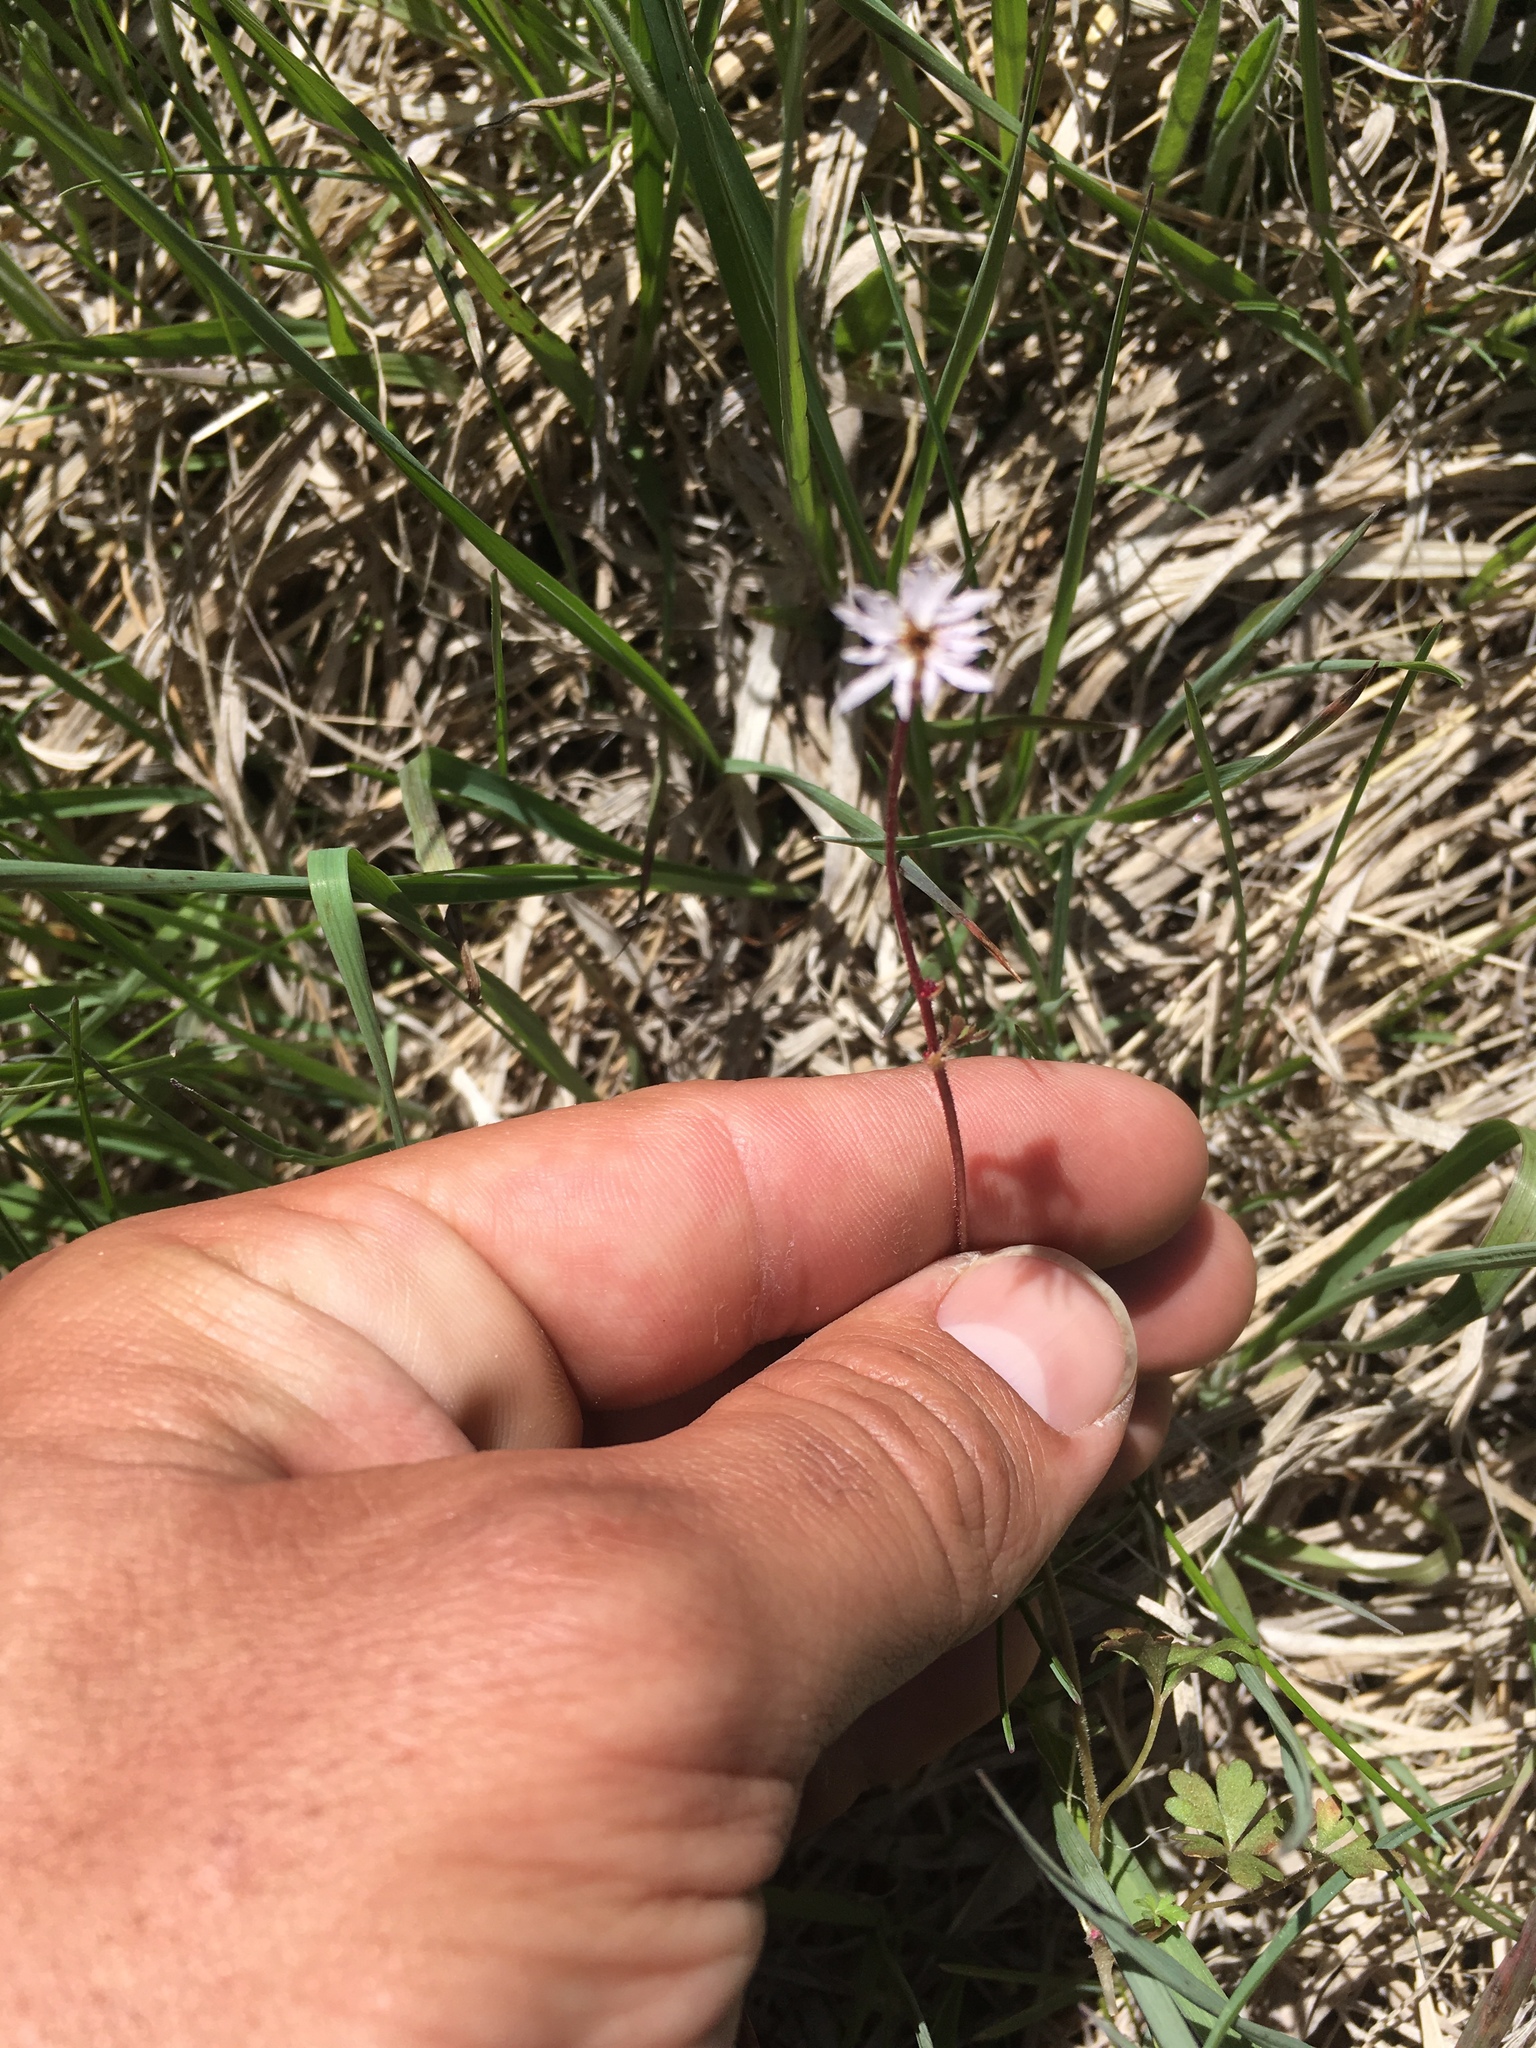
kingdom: Plantae
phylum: Tracheophyta
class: Magnoliopsida
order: Saxifragales
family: Saxifragaceae
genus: Lithophragma
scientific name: Lithophragma glabrum
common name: Bulbous prairie-star
